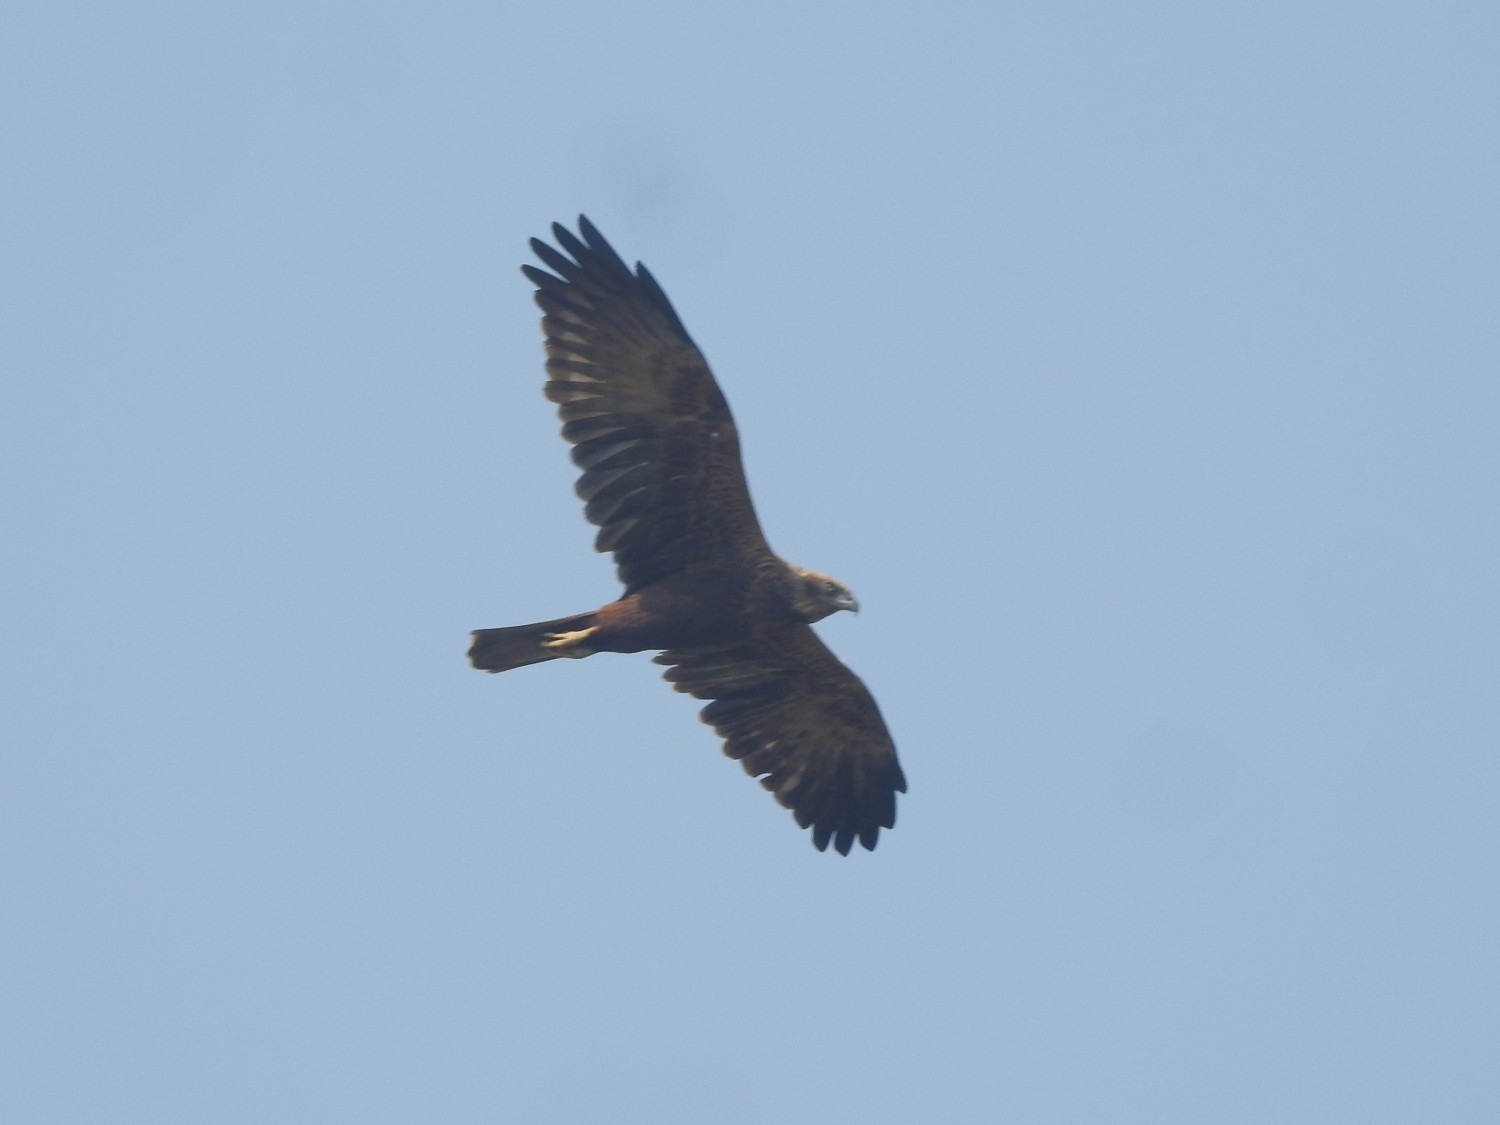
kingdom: Animalia
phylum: Chordata
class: Aves
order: Accipitriformes
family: Accipitridae
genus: Circus
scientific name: Circus aeruginosus
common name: Western marsh harrier
